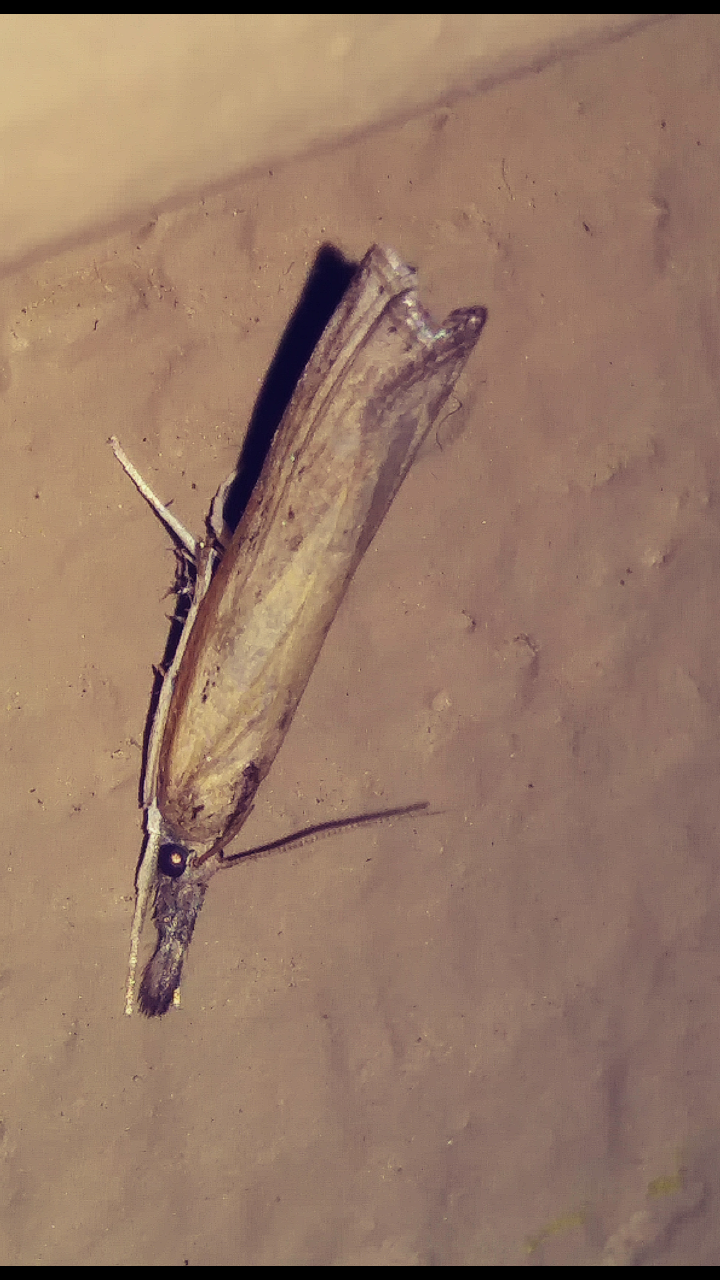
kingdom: Animalia
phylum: Arthropoda
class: Insecta
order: Lepidoptera
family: Crambidae
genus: Fissicrambus
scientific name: Fissicrambus mutabilis
